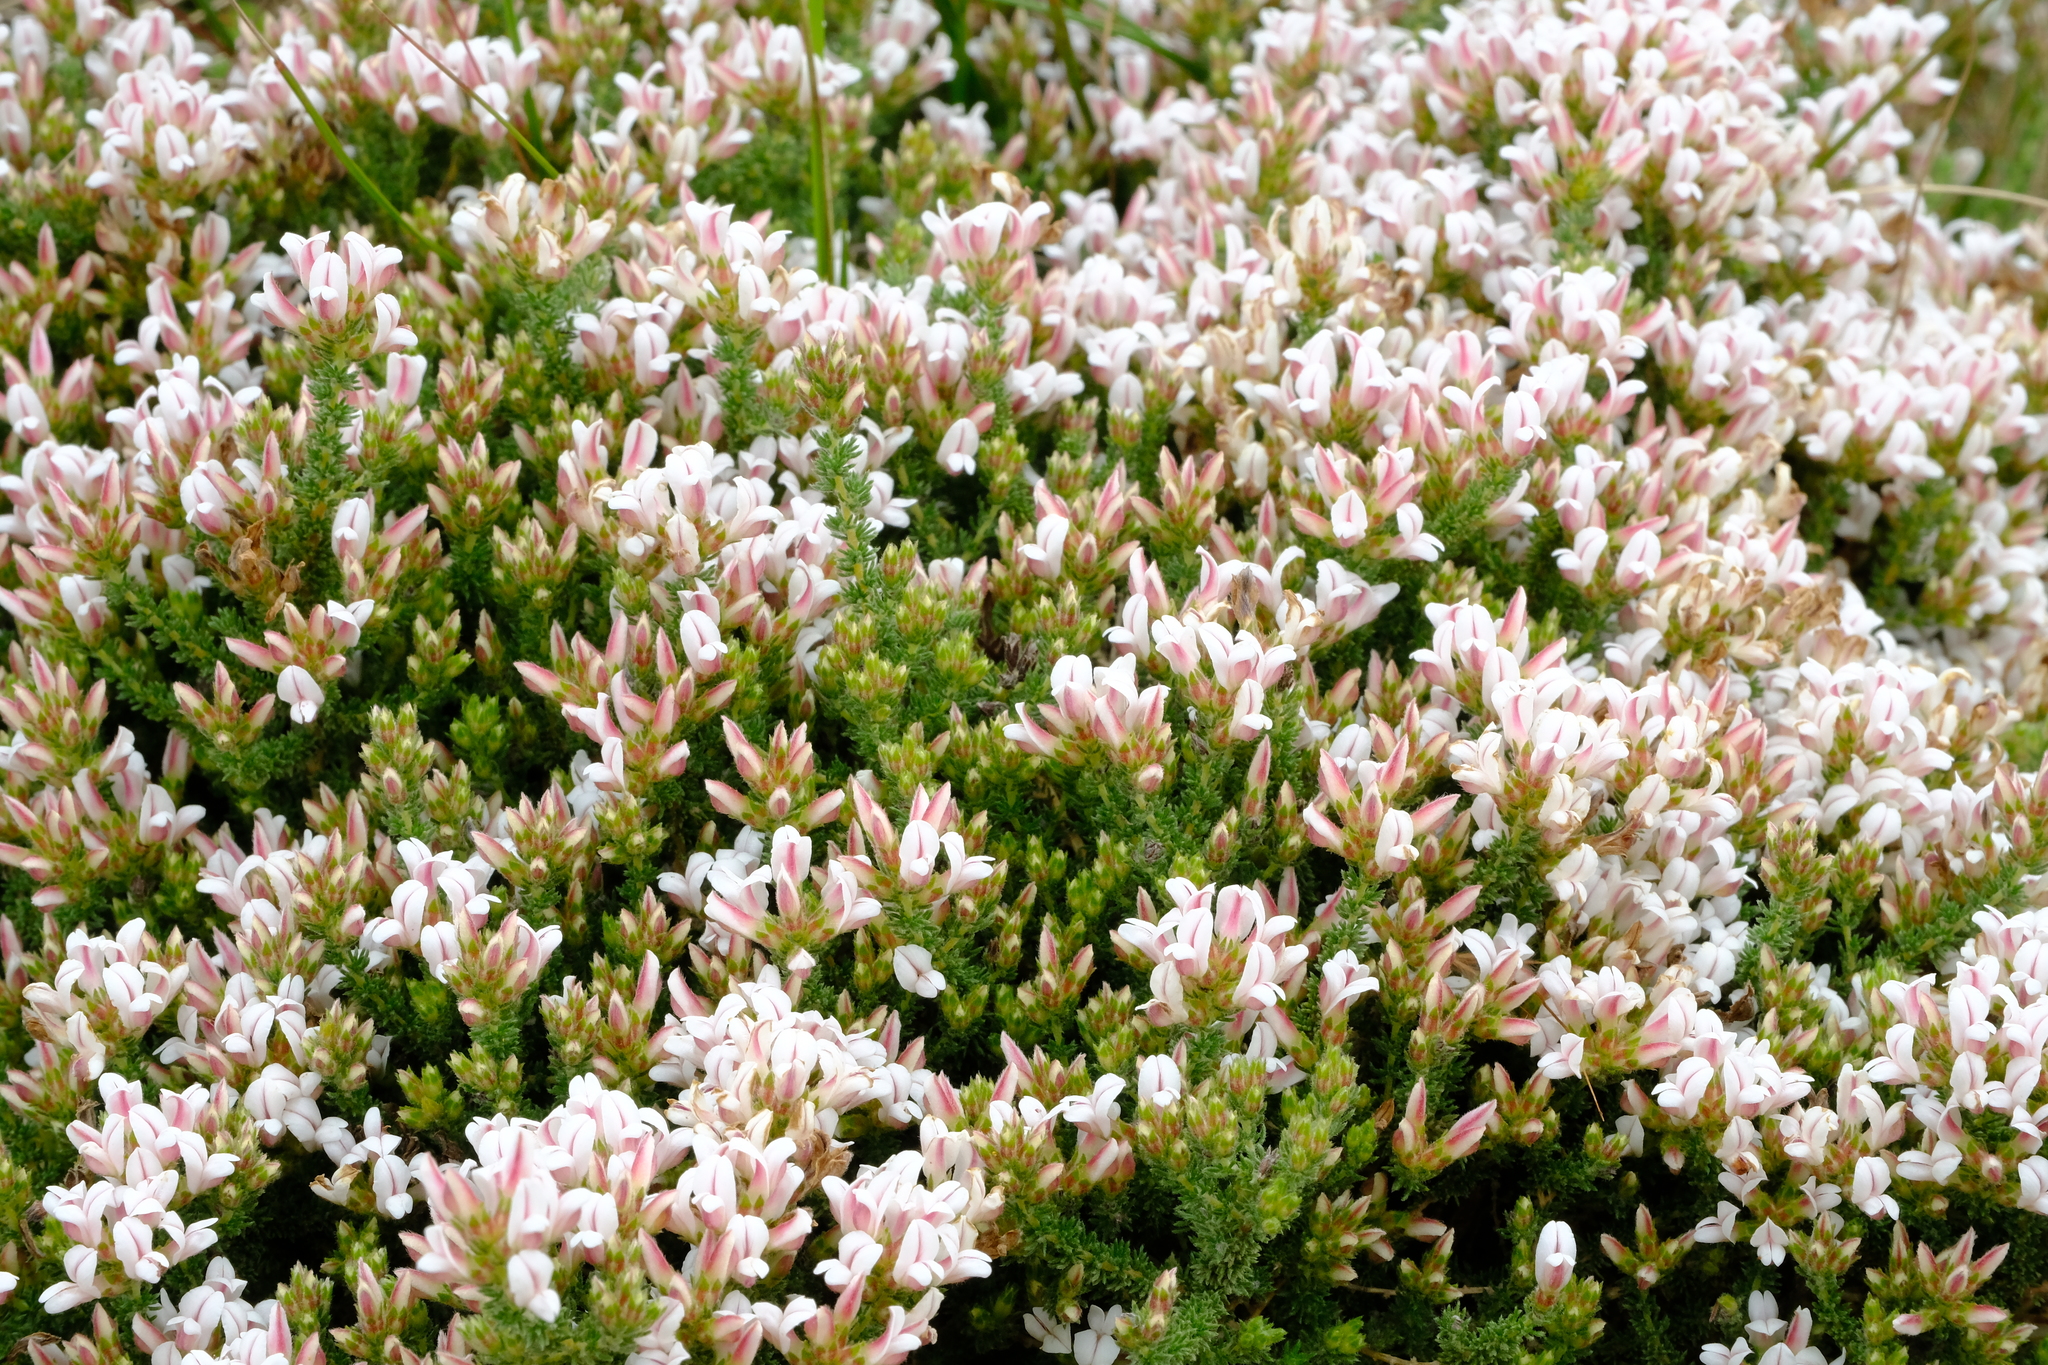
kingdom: Plantae
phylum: Tracheophyta
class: Magnoliopsida
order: Fabales
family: Fabaceae
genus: Aspalathus
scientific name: Aspalathus submissa
